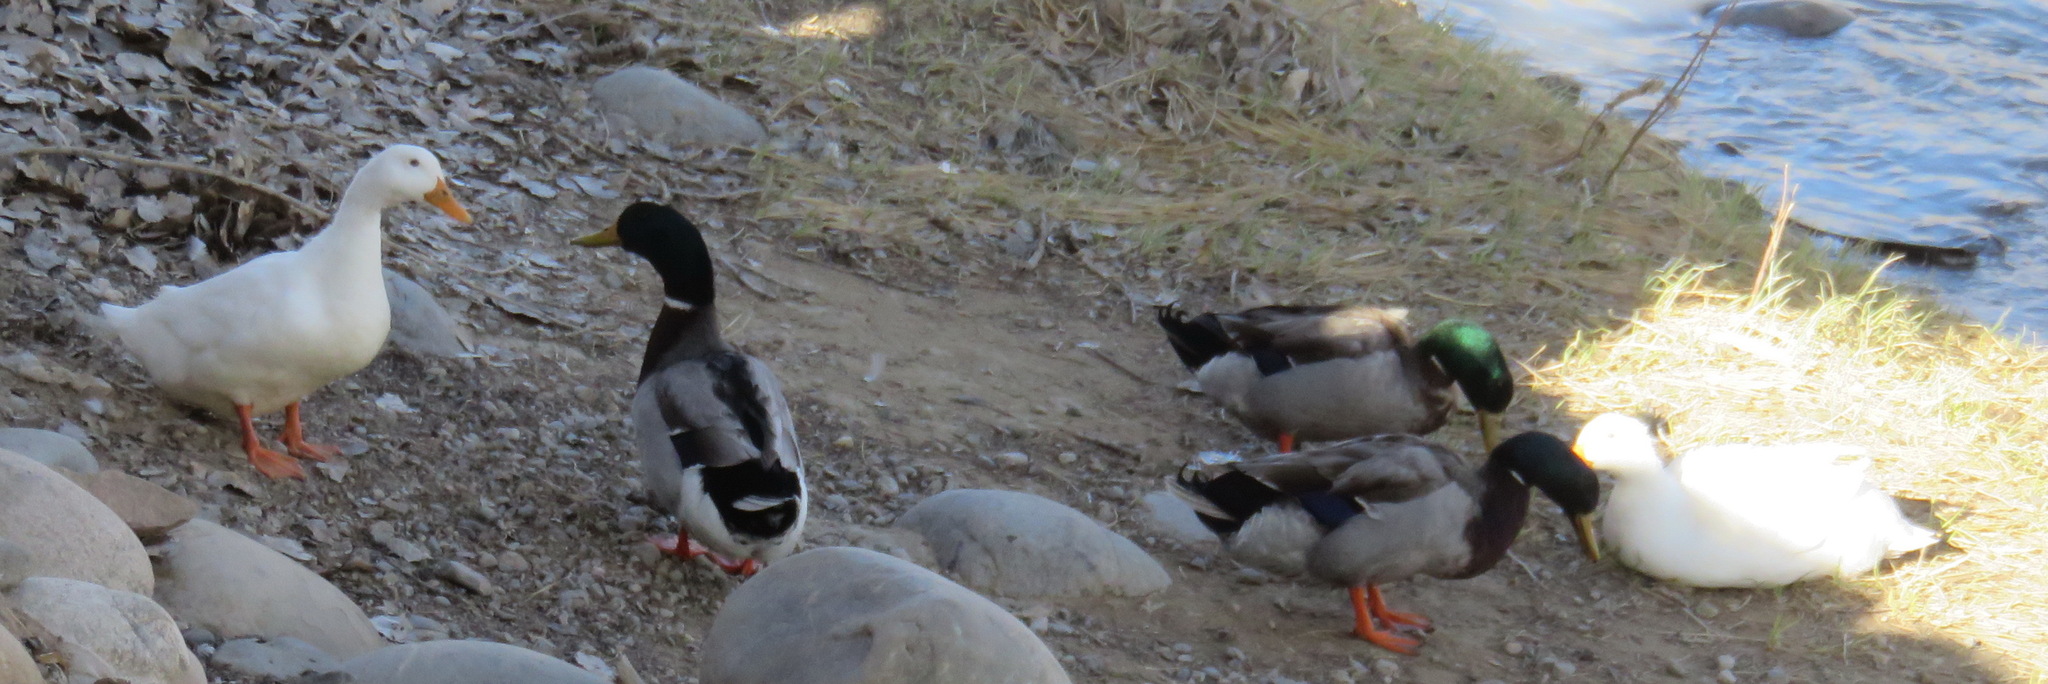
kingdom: Animalia
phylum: Chordata
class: Aves
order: Anseriformes
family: Anatidae
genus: Anas
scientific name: Anas platyrhynchos
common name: Mallard
